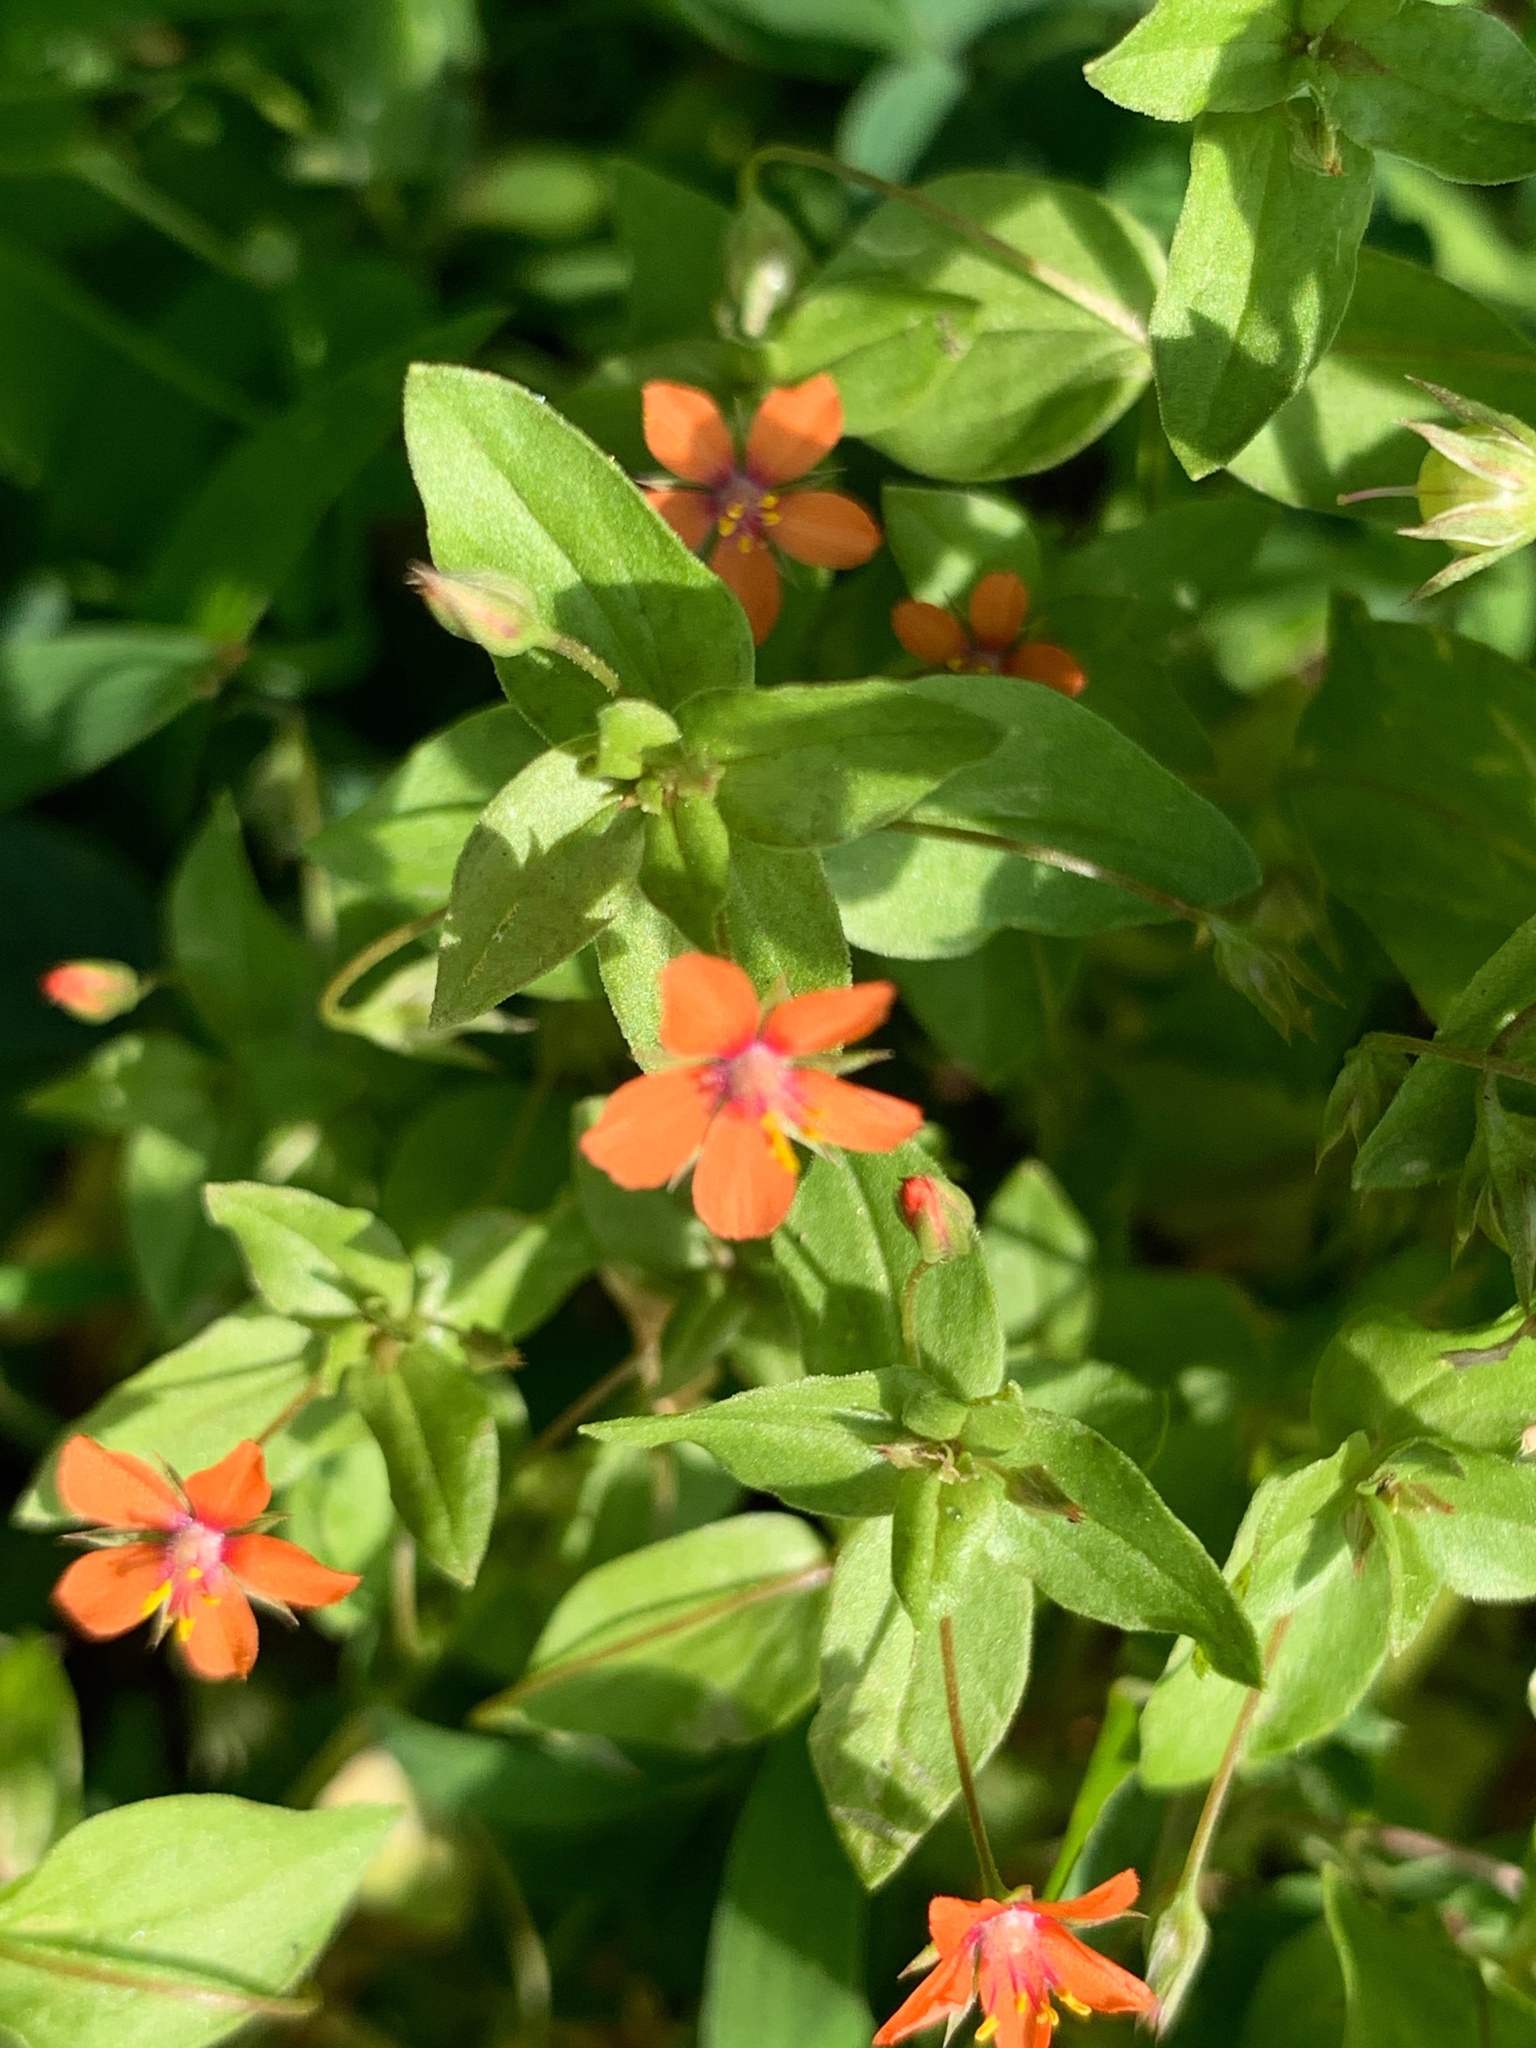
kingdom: Plantae
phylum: Tracheophyta
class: Magnoliopsida
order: Ericales
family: Primulaceae
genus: Lysimachia
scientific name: Lysimachia arvensis
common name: Scarlet pimpernel
